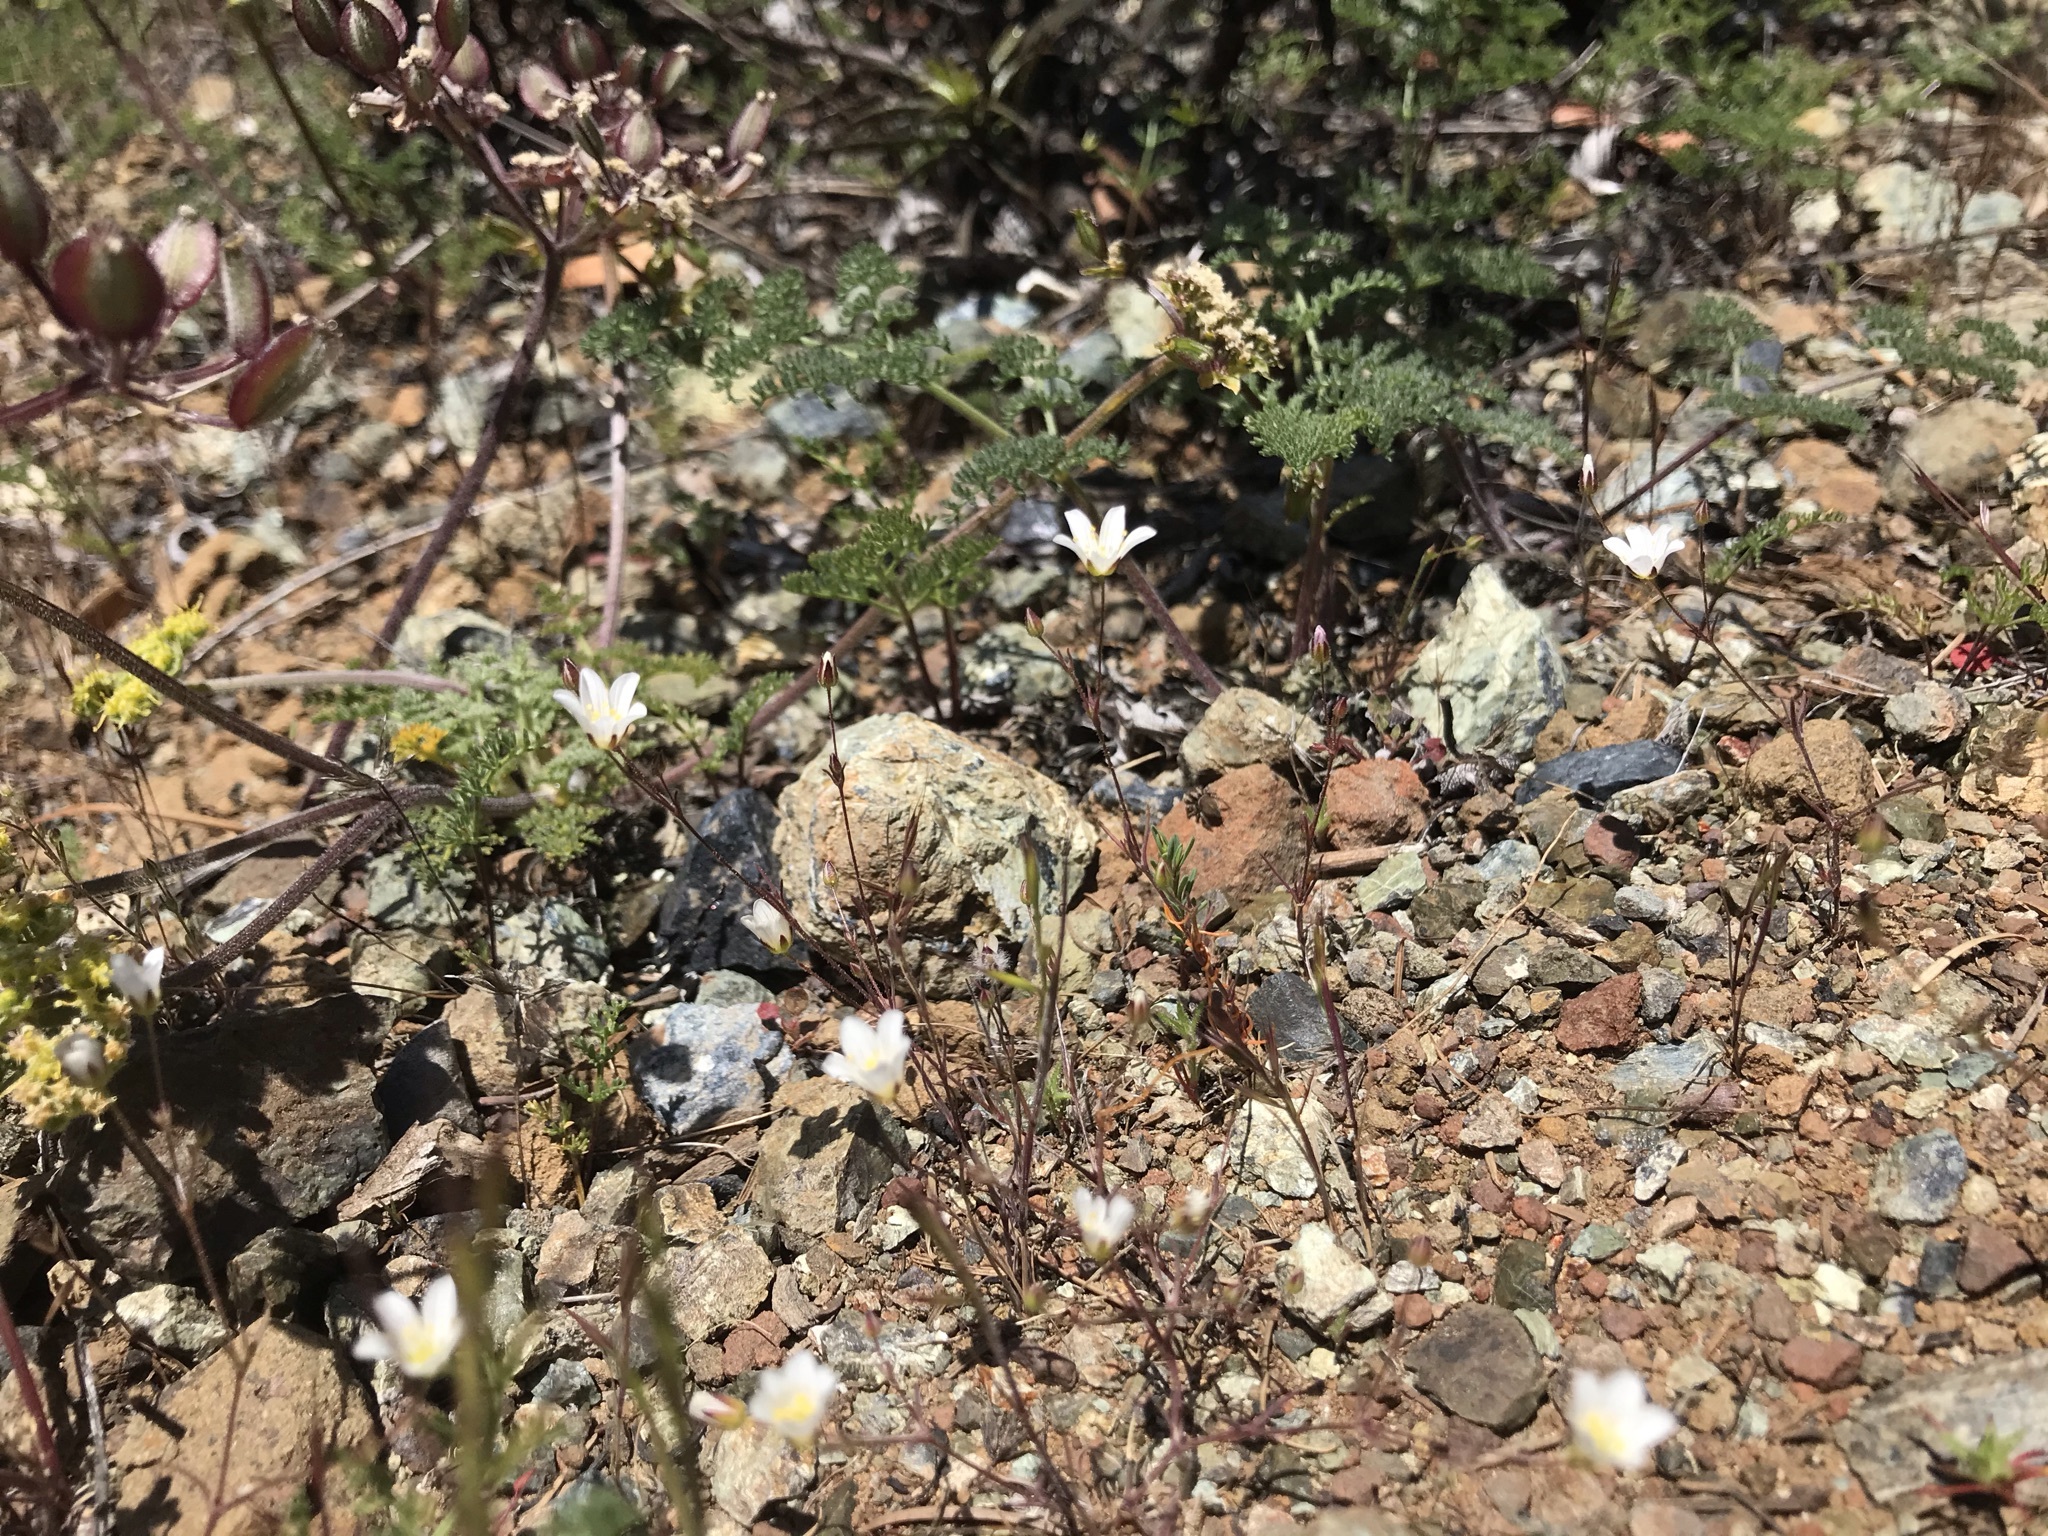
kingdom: Plantae
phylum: Tracheophyta
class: Magnoliopsida
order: Caryophyllales
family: Caryophyllaceae
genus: Sabulina
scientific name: Sabulina douglasii
